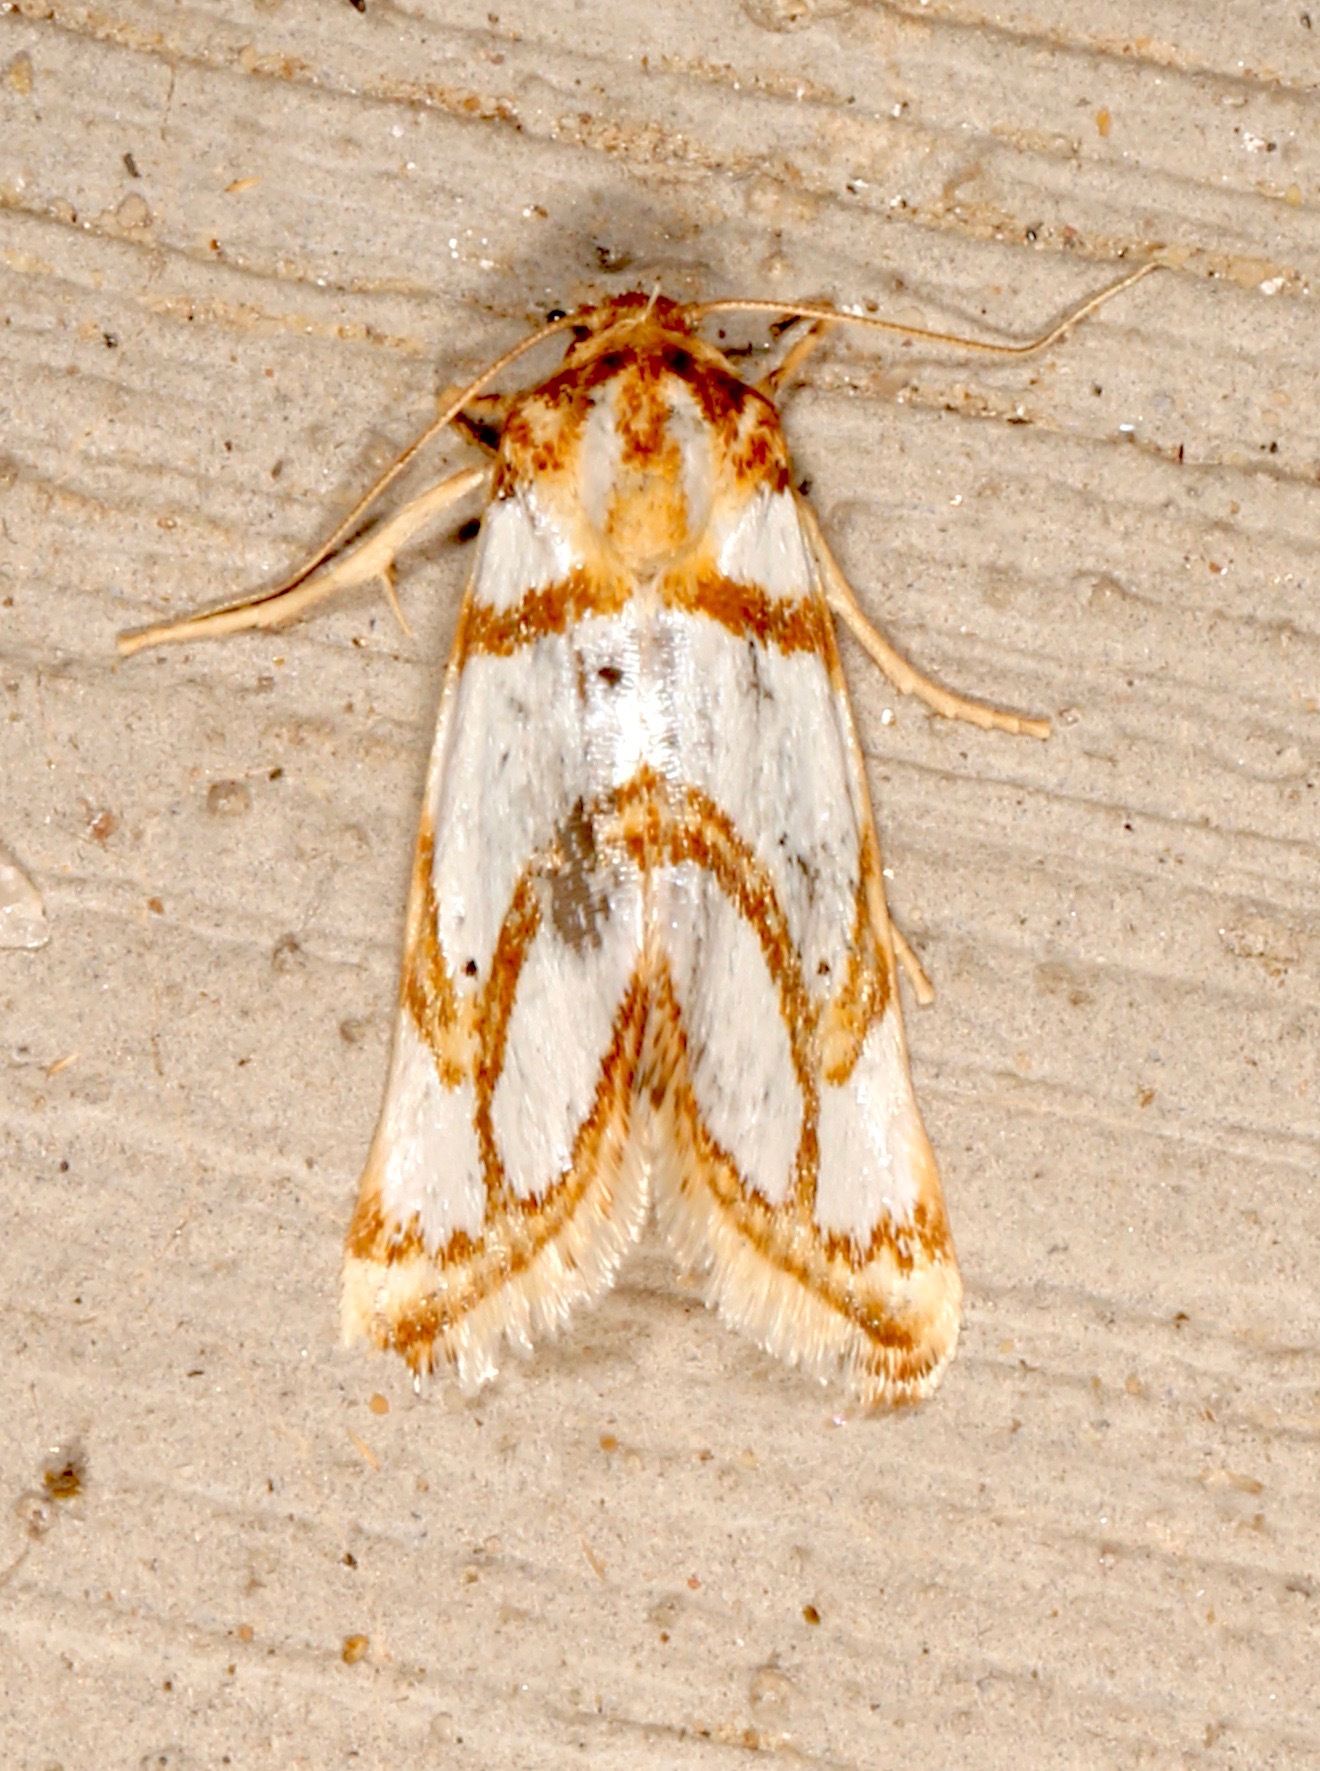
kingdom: Animalia
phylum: Arthropoda
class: Insecta
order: Lepidoptera
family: Noctuidae
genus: Argentostiria
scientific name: Argentostiria koebelei
